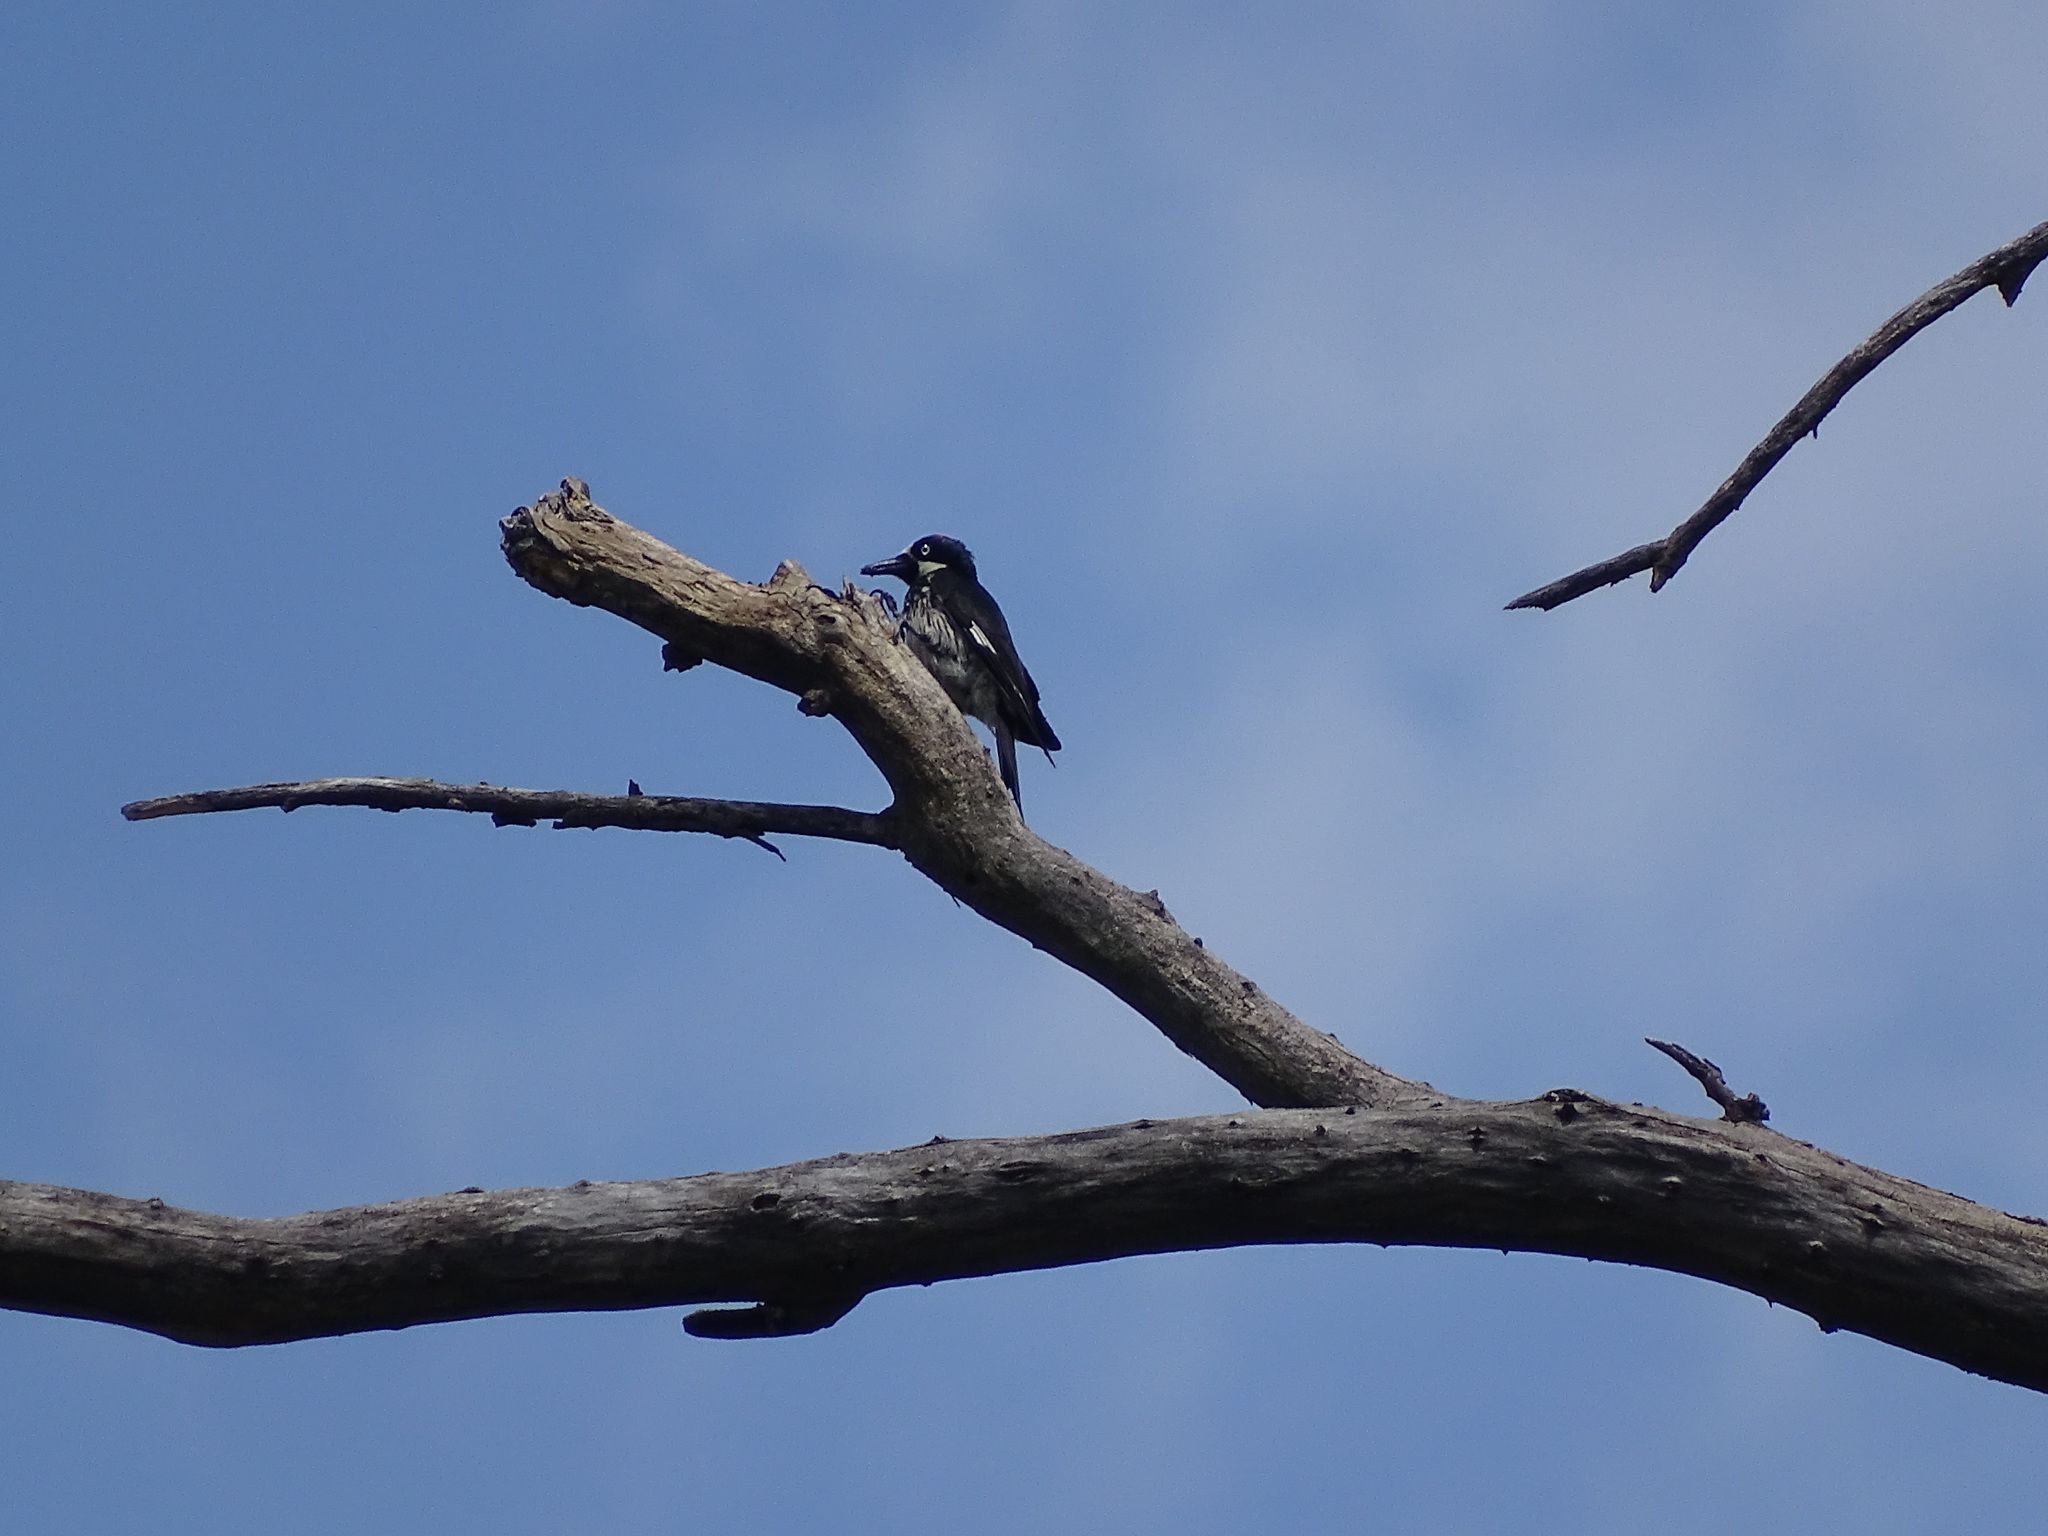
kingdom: Animalia
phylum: Chordata
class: Aves
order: Piciformes
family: Picidae
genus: Melanerpes
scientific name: Melanerpes formicivorus
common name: Acorn woodpecker
